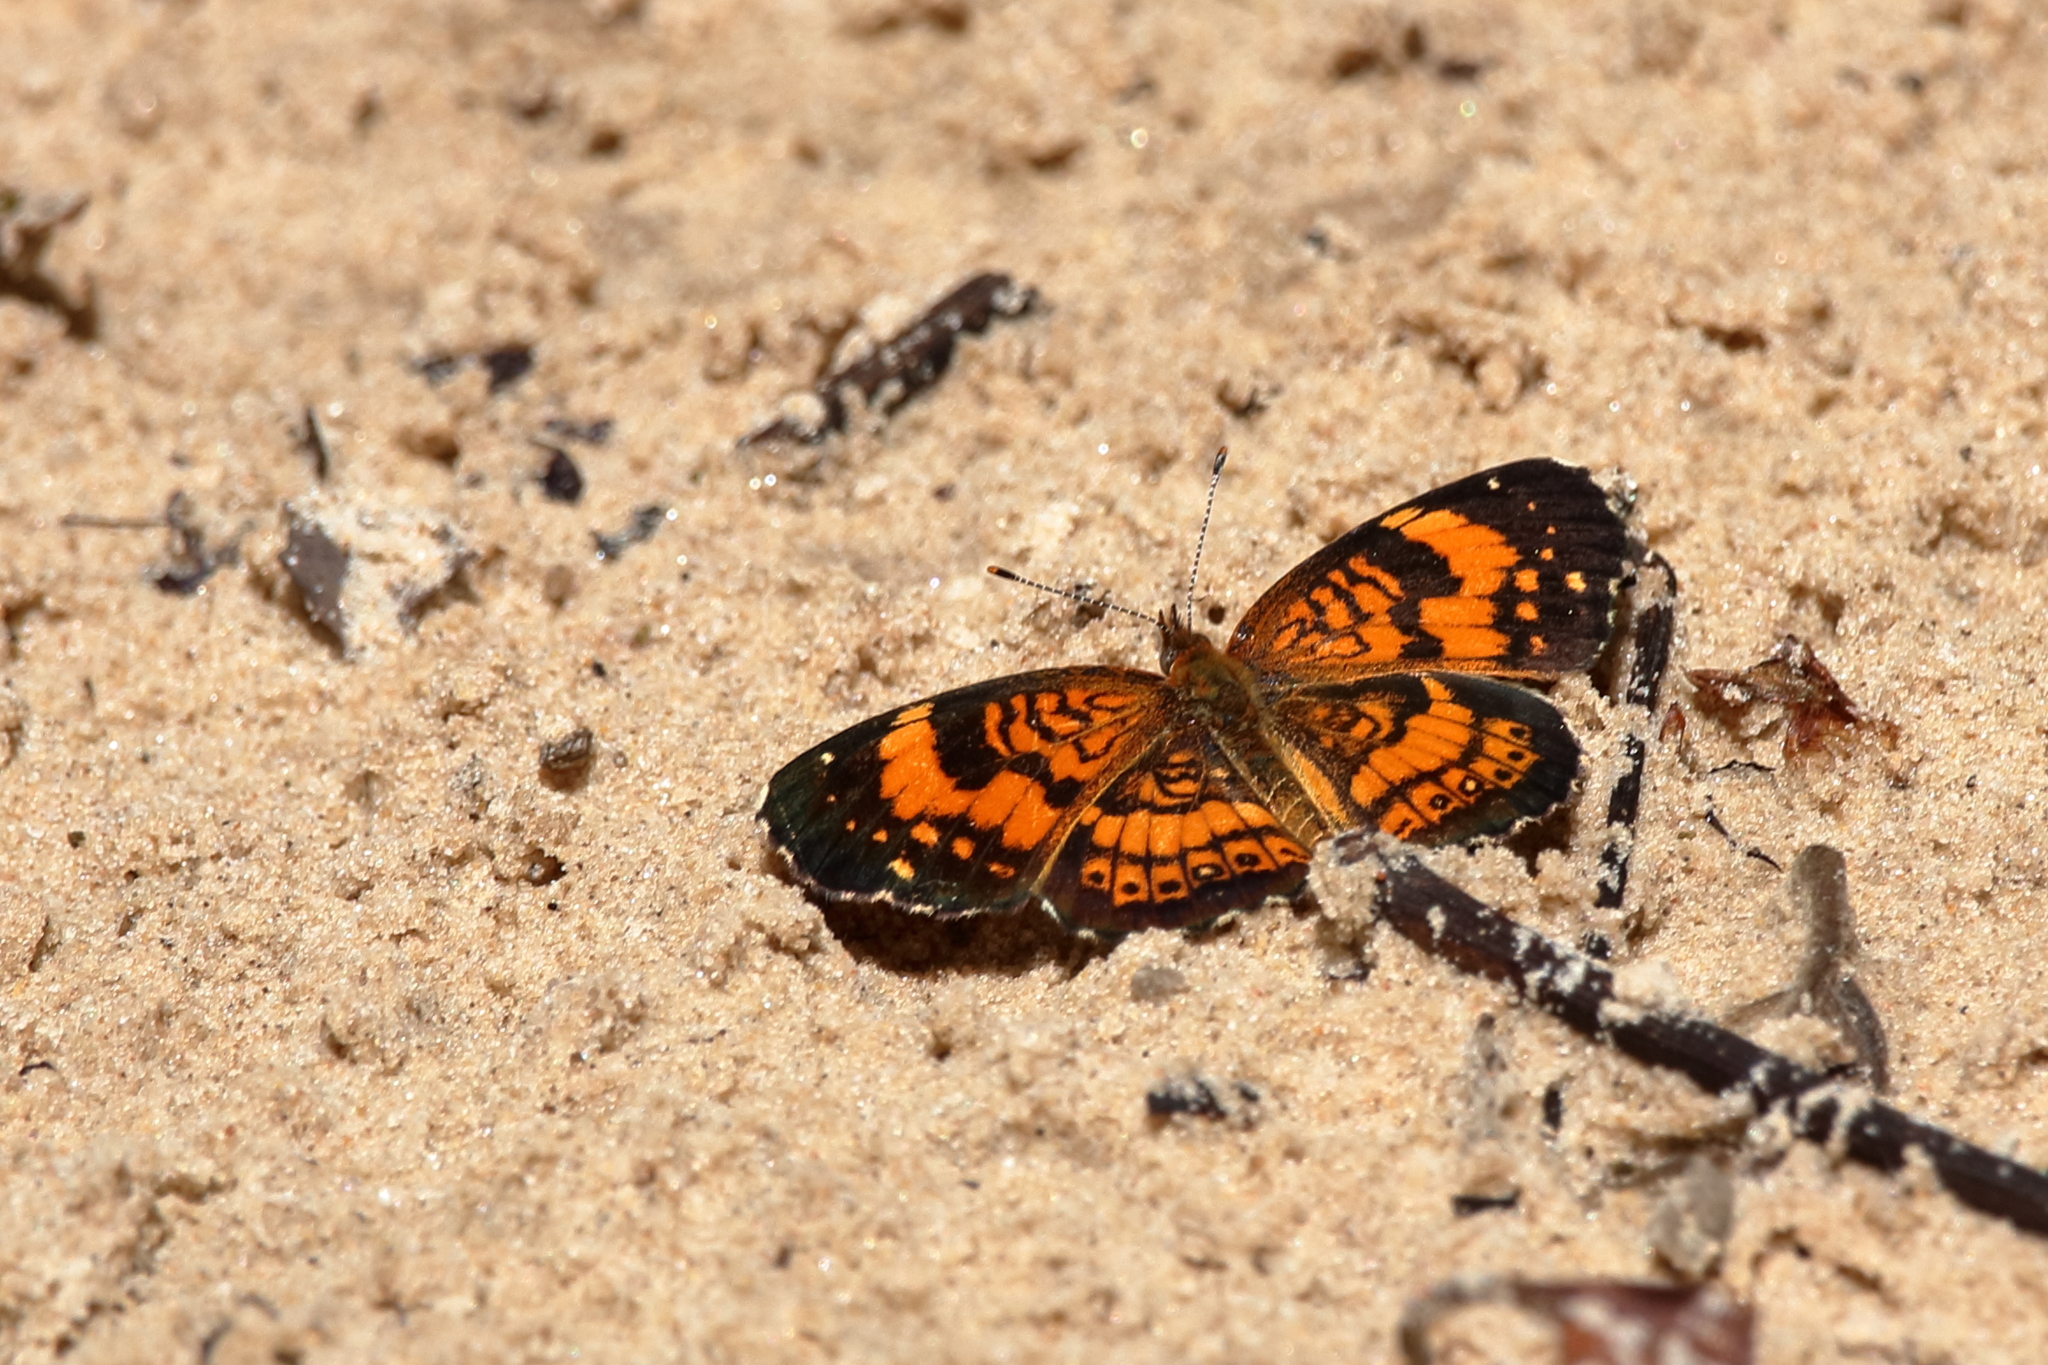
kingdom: Animalia
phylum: Arthropoda
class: Insecta
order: Lepidoptera
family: Nymphalidae
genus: Phyciodes
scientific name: Phyciodes tharos
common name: Pearl crescent
